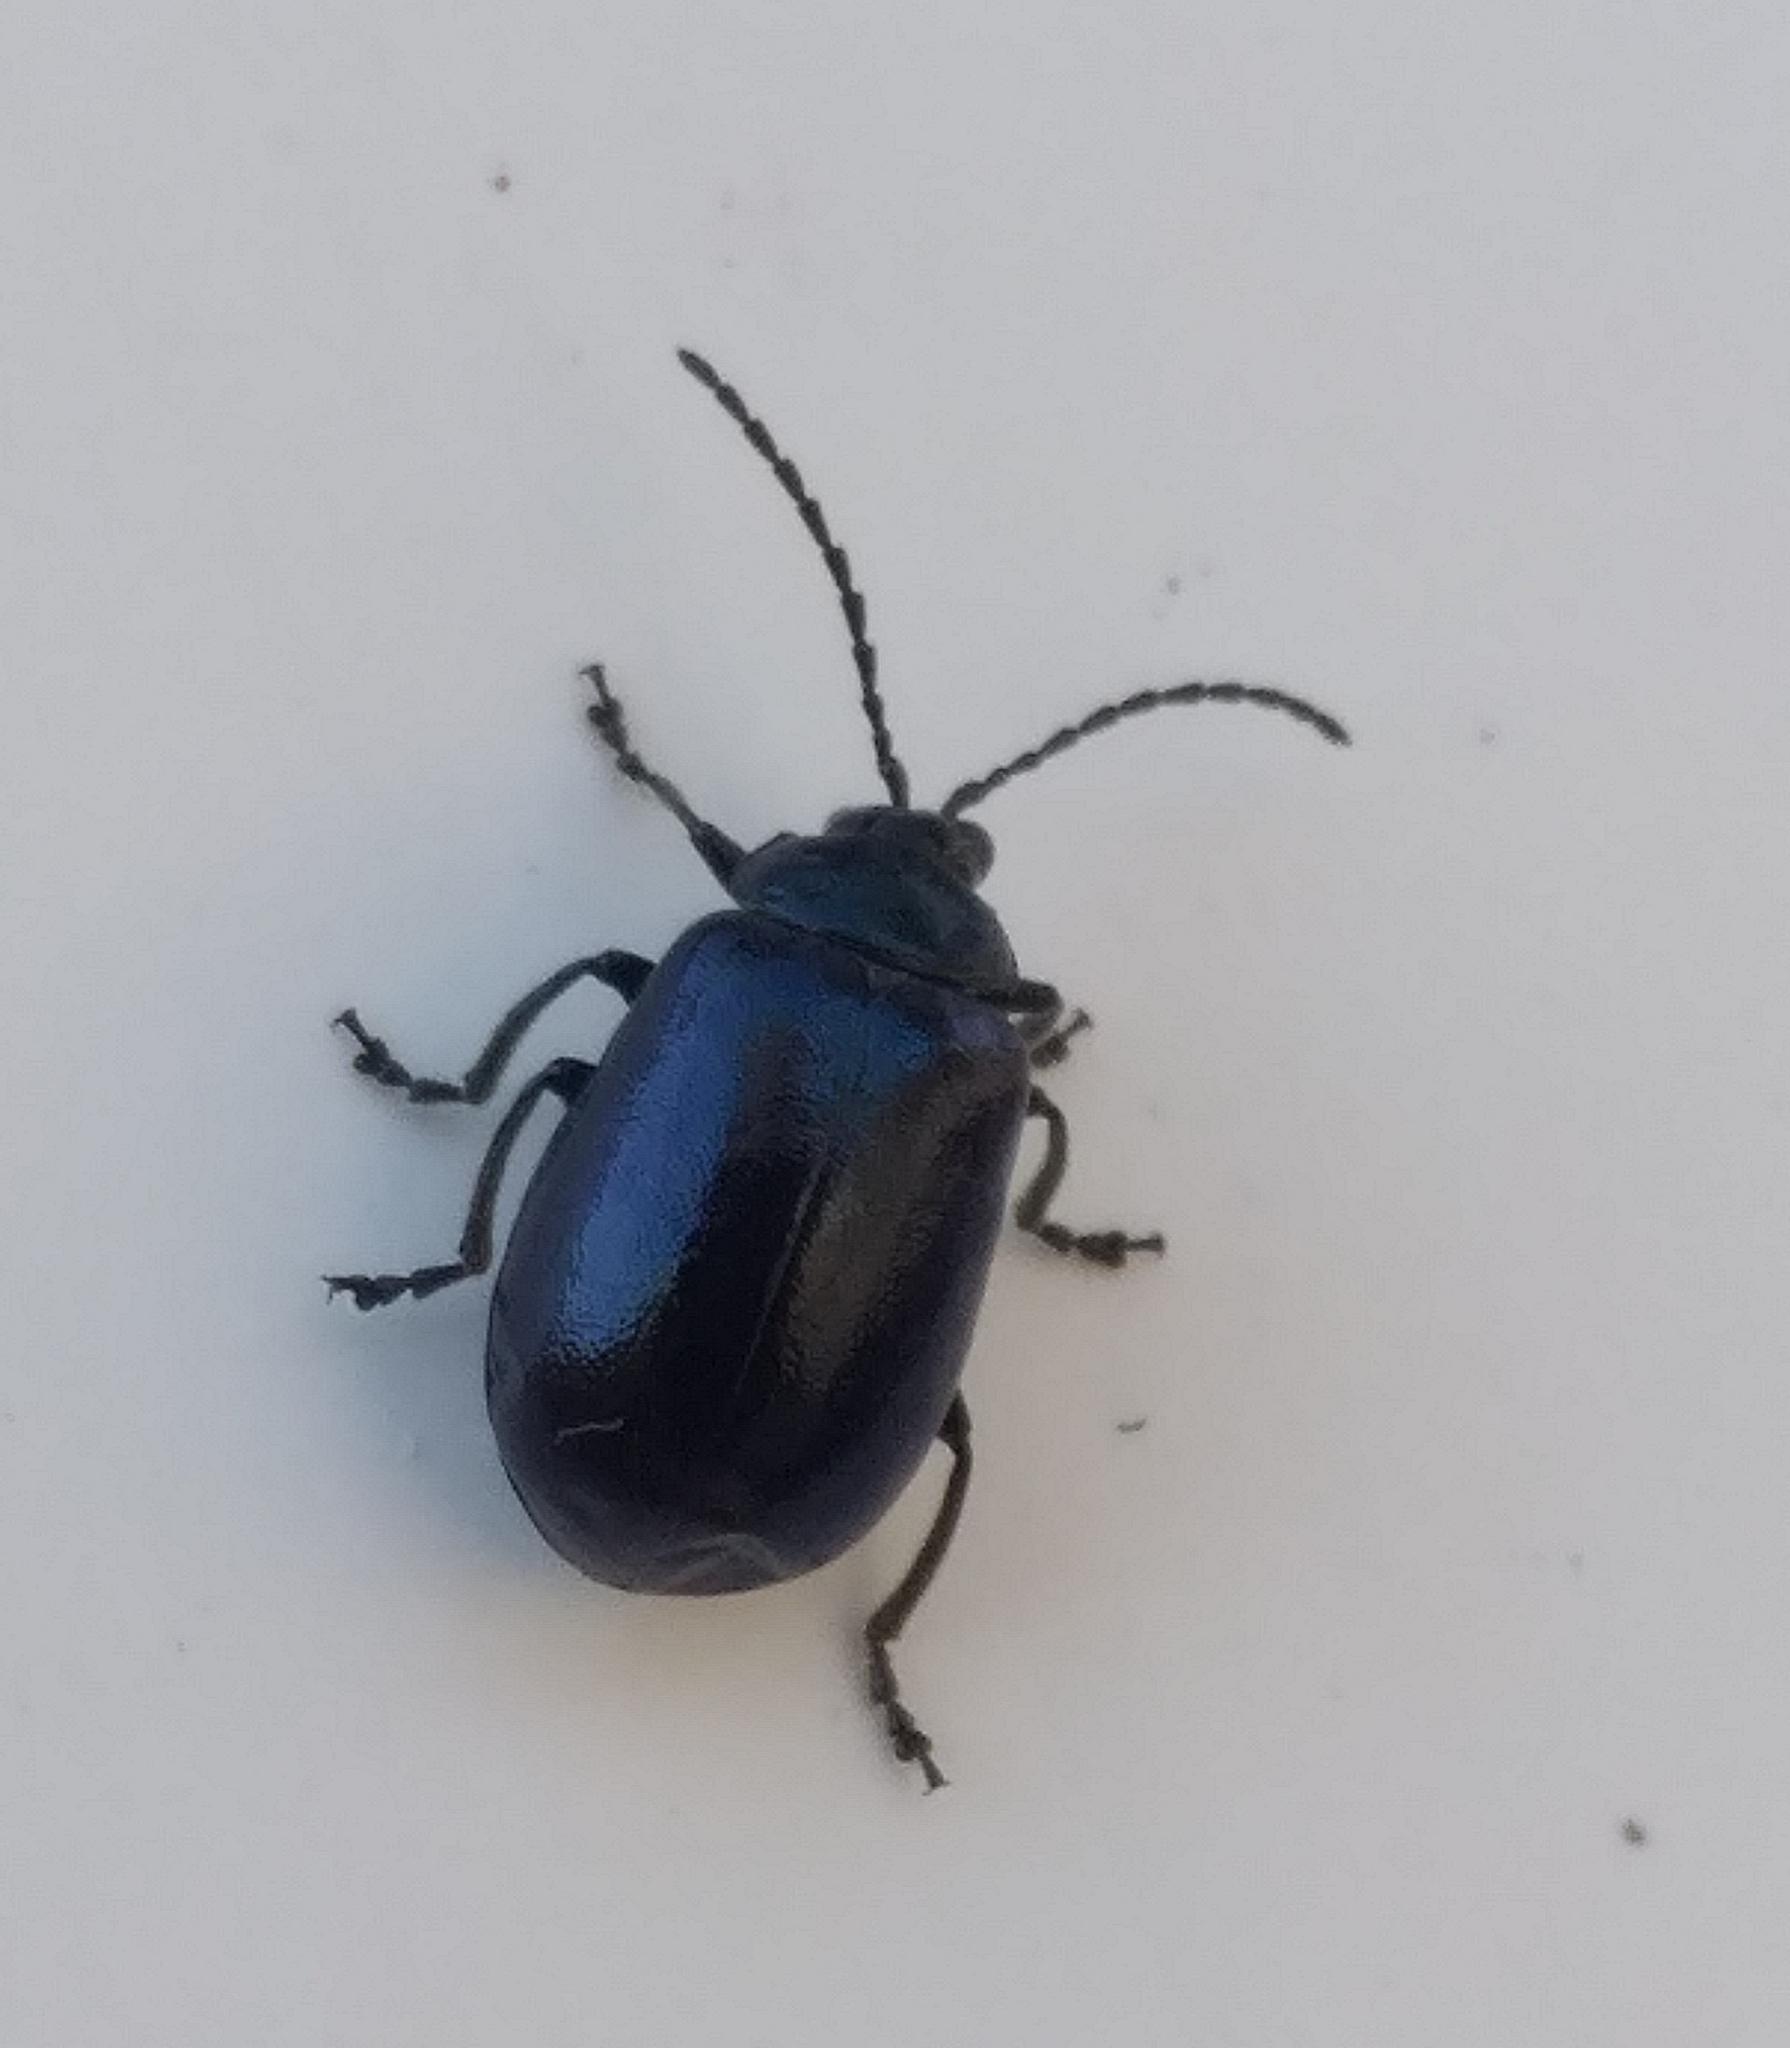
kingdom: Animalia
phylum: Arthropoda
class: Insecta
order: Coleoptera
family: Chrysomelidae
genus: Agelastica
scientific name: Agelastica alni
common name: Alder leaf beetle
